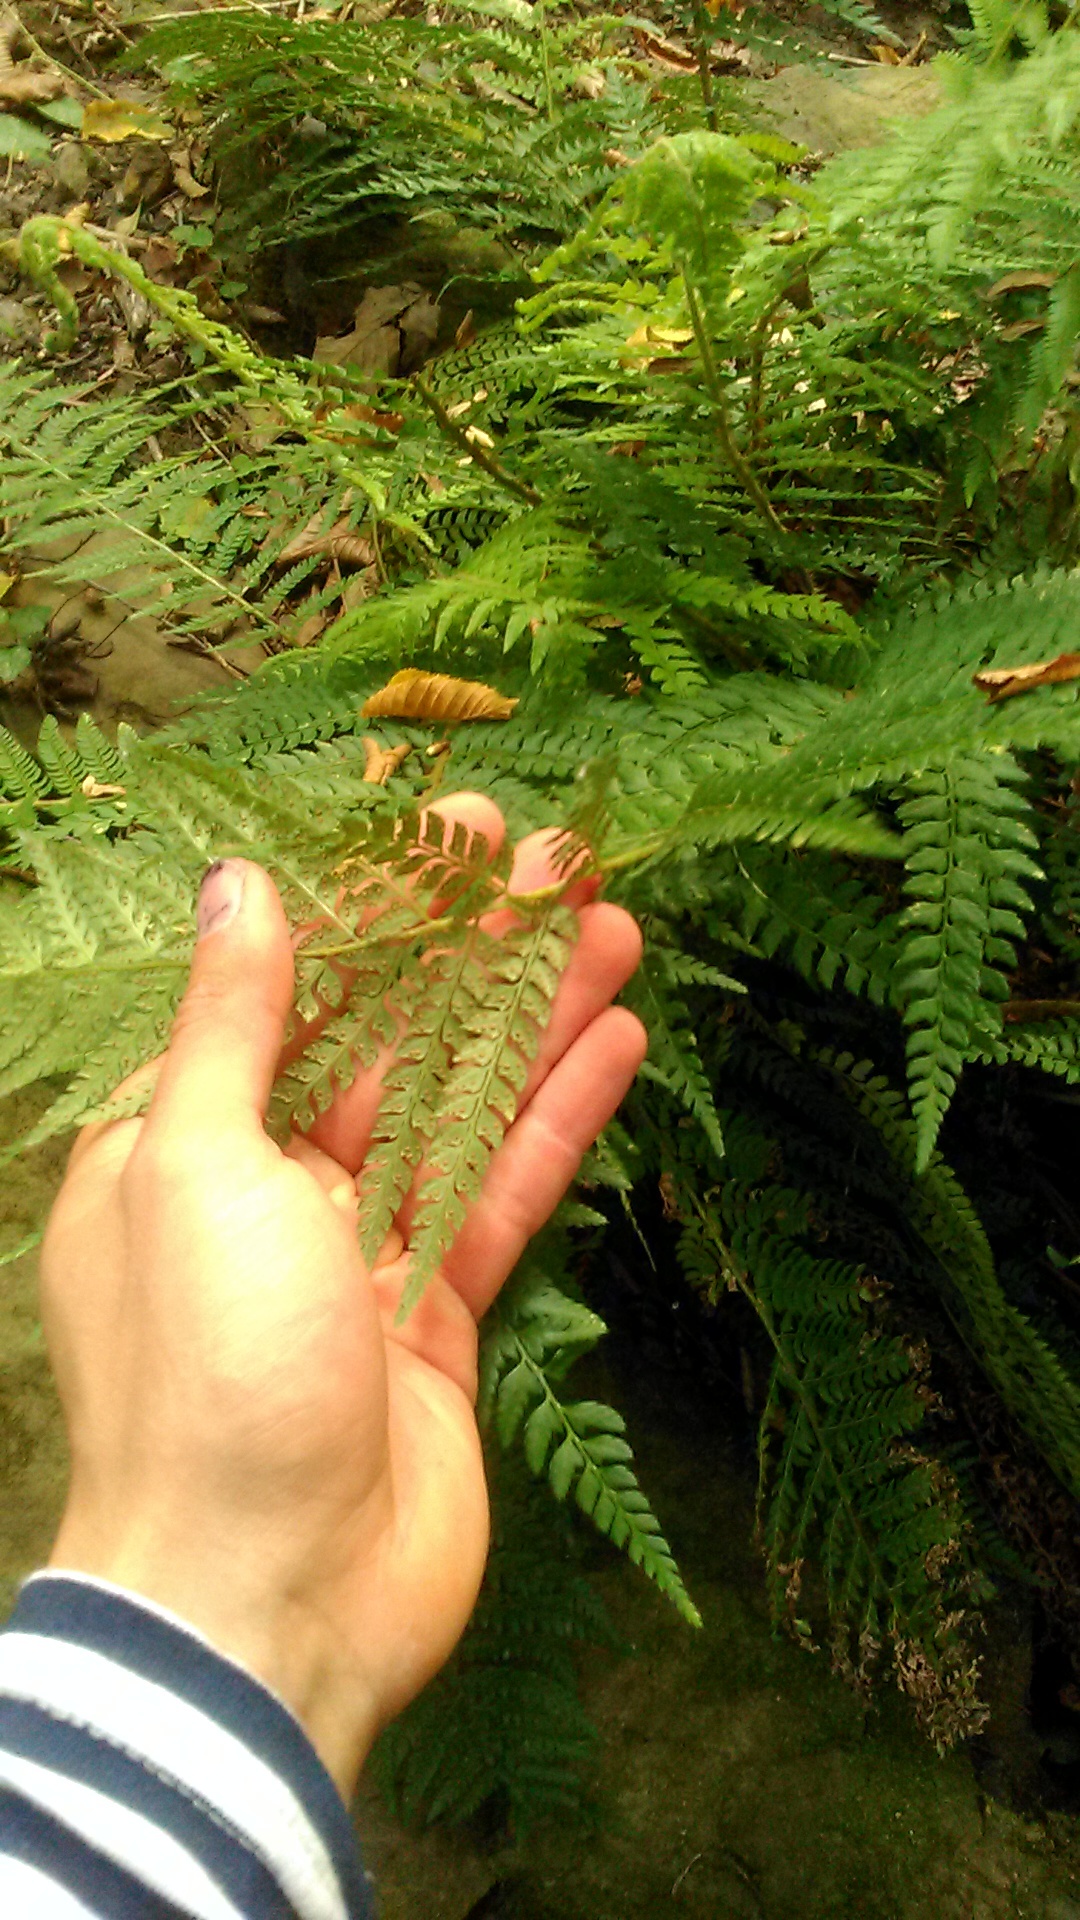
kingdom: Plantae
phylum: Tracheophyta
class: Polypodiopsida
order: Polypodiales
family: Dryopteridaceae
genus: Polystichum
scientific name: Polystichum setiferum
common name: Soft shield-fern
